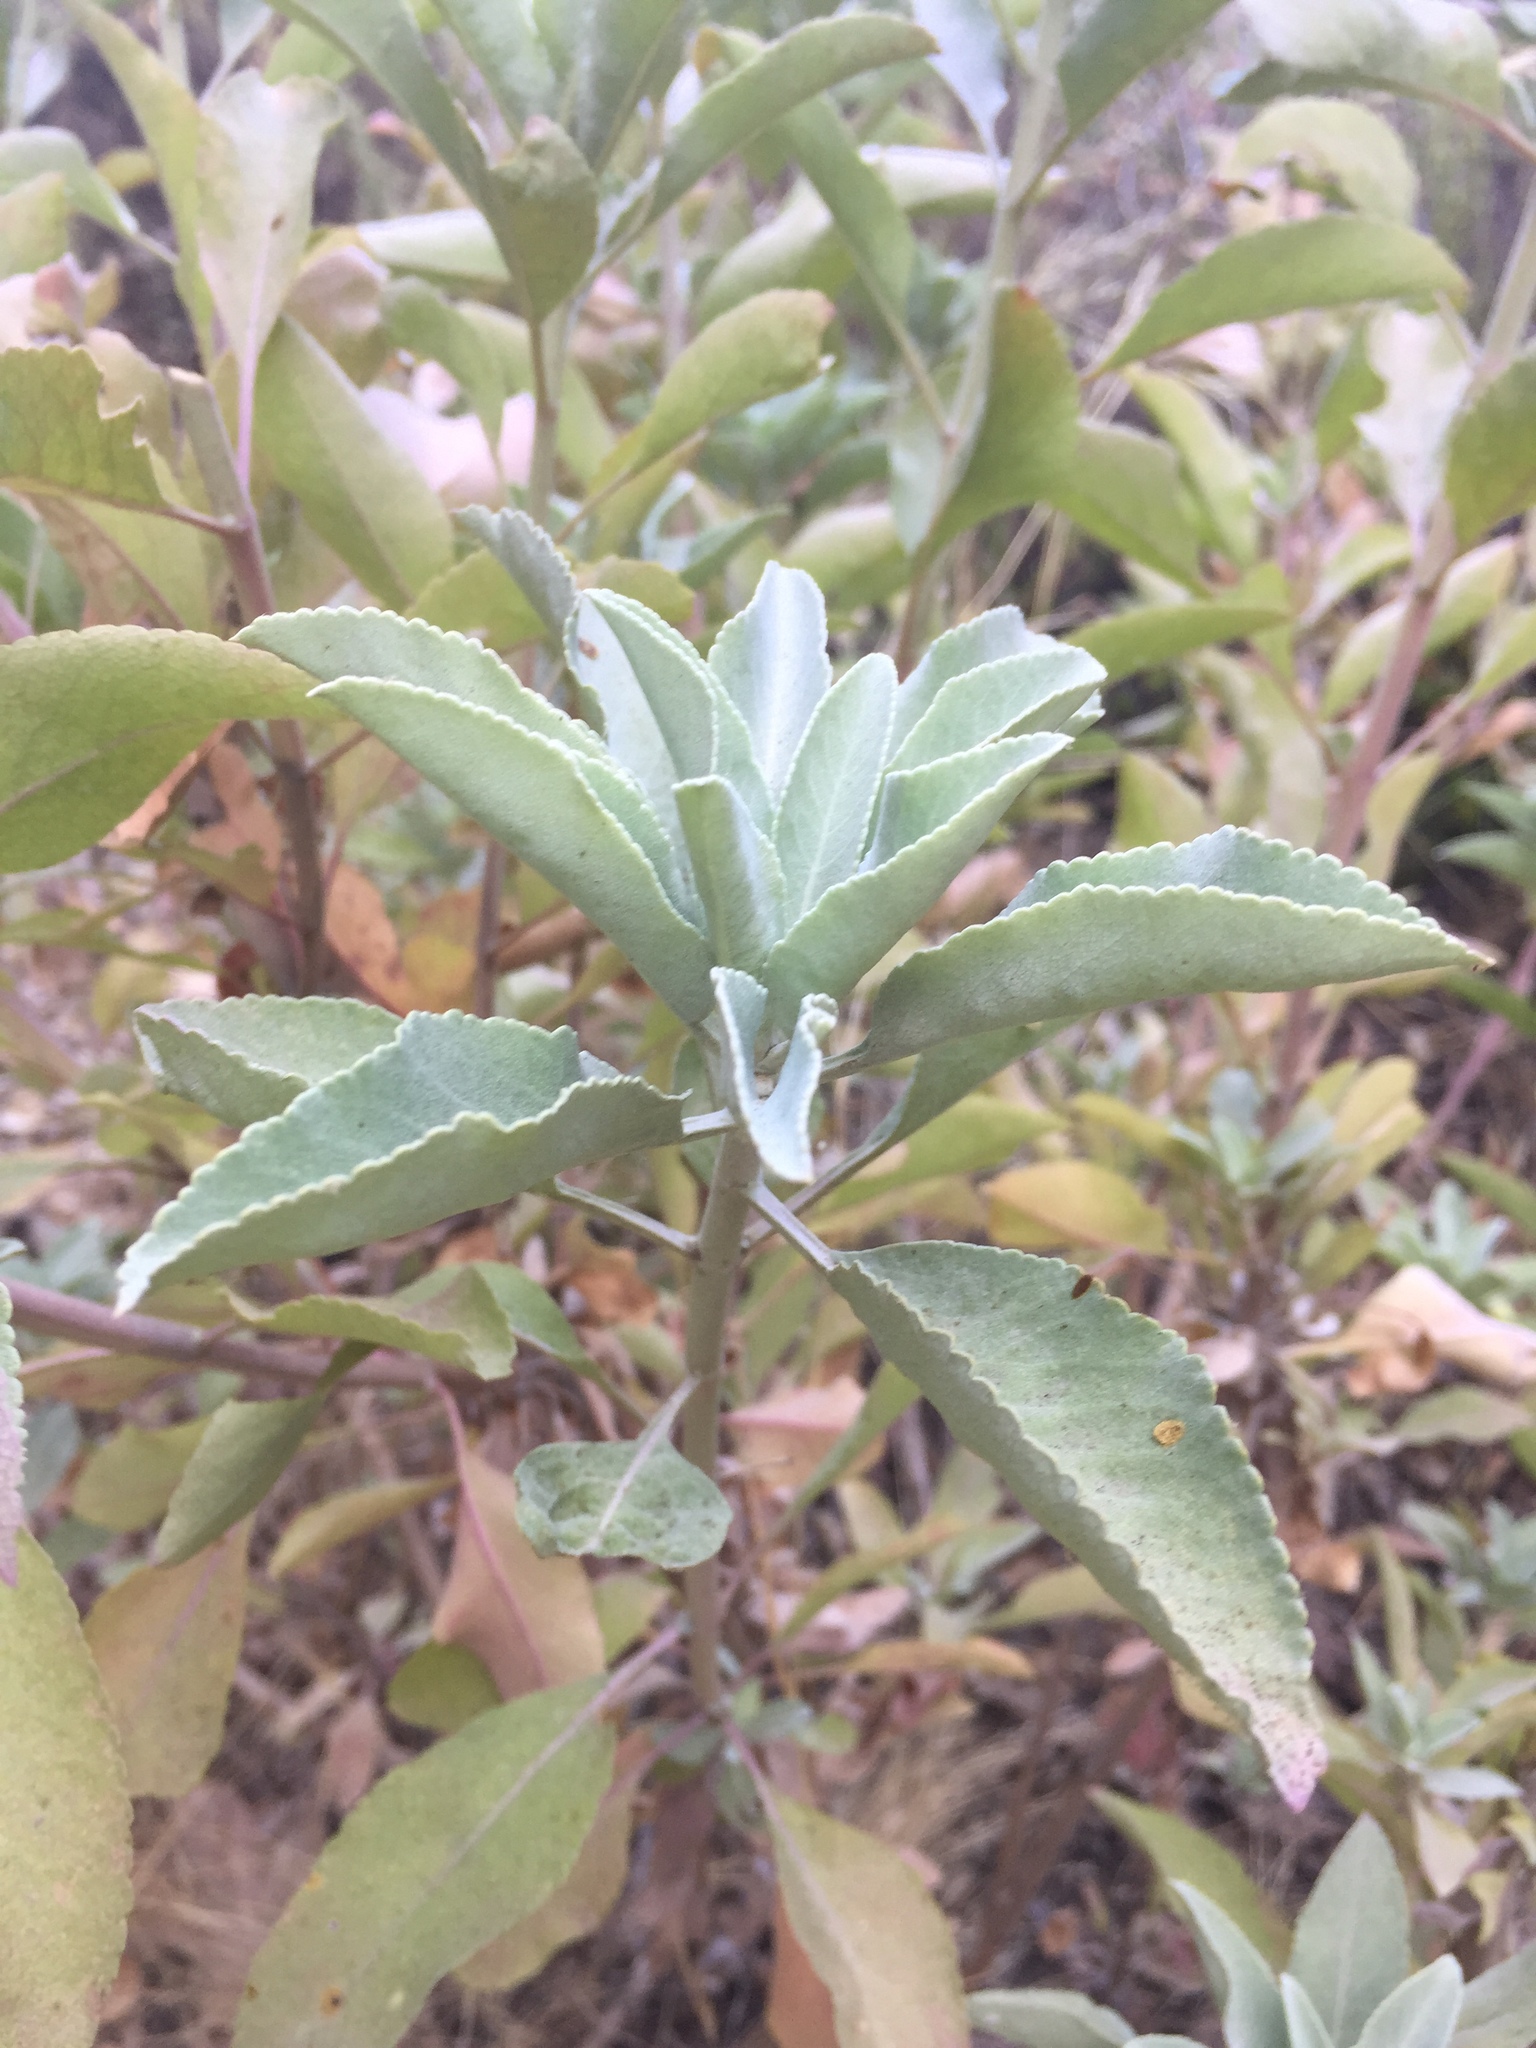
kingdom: Plantae
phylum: Tracheophyta
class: Magnoliopsida
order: Lamiales
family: Lamiaceae
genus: Salvia
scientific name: Salvia apiana
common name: White sage
